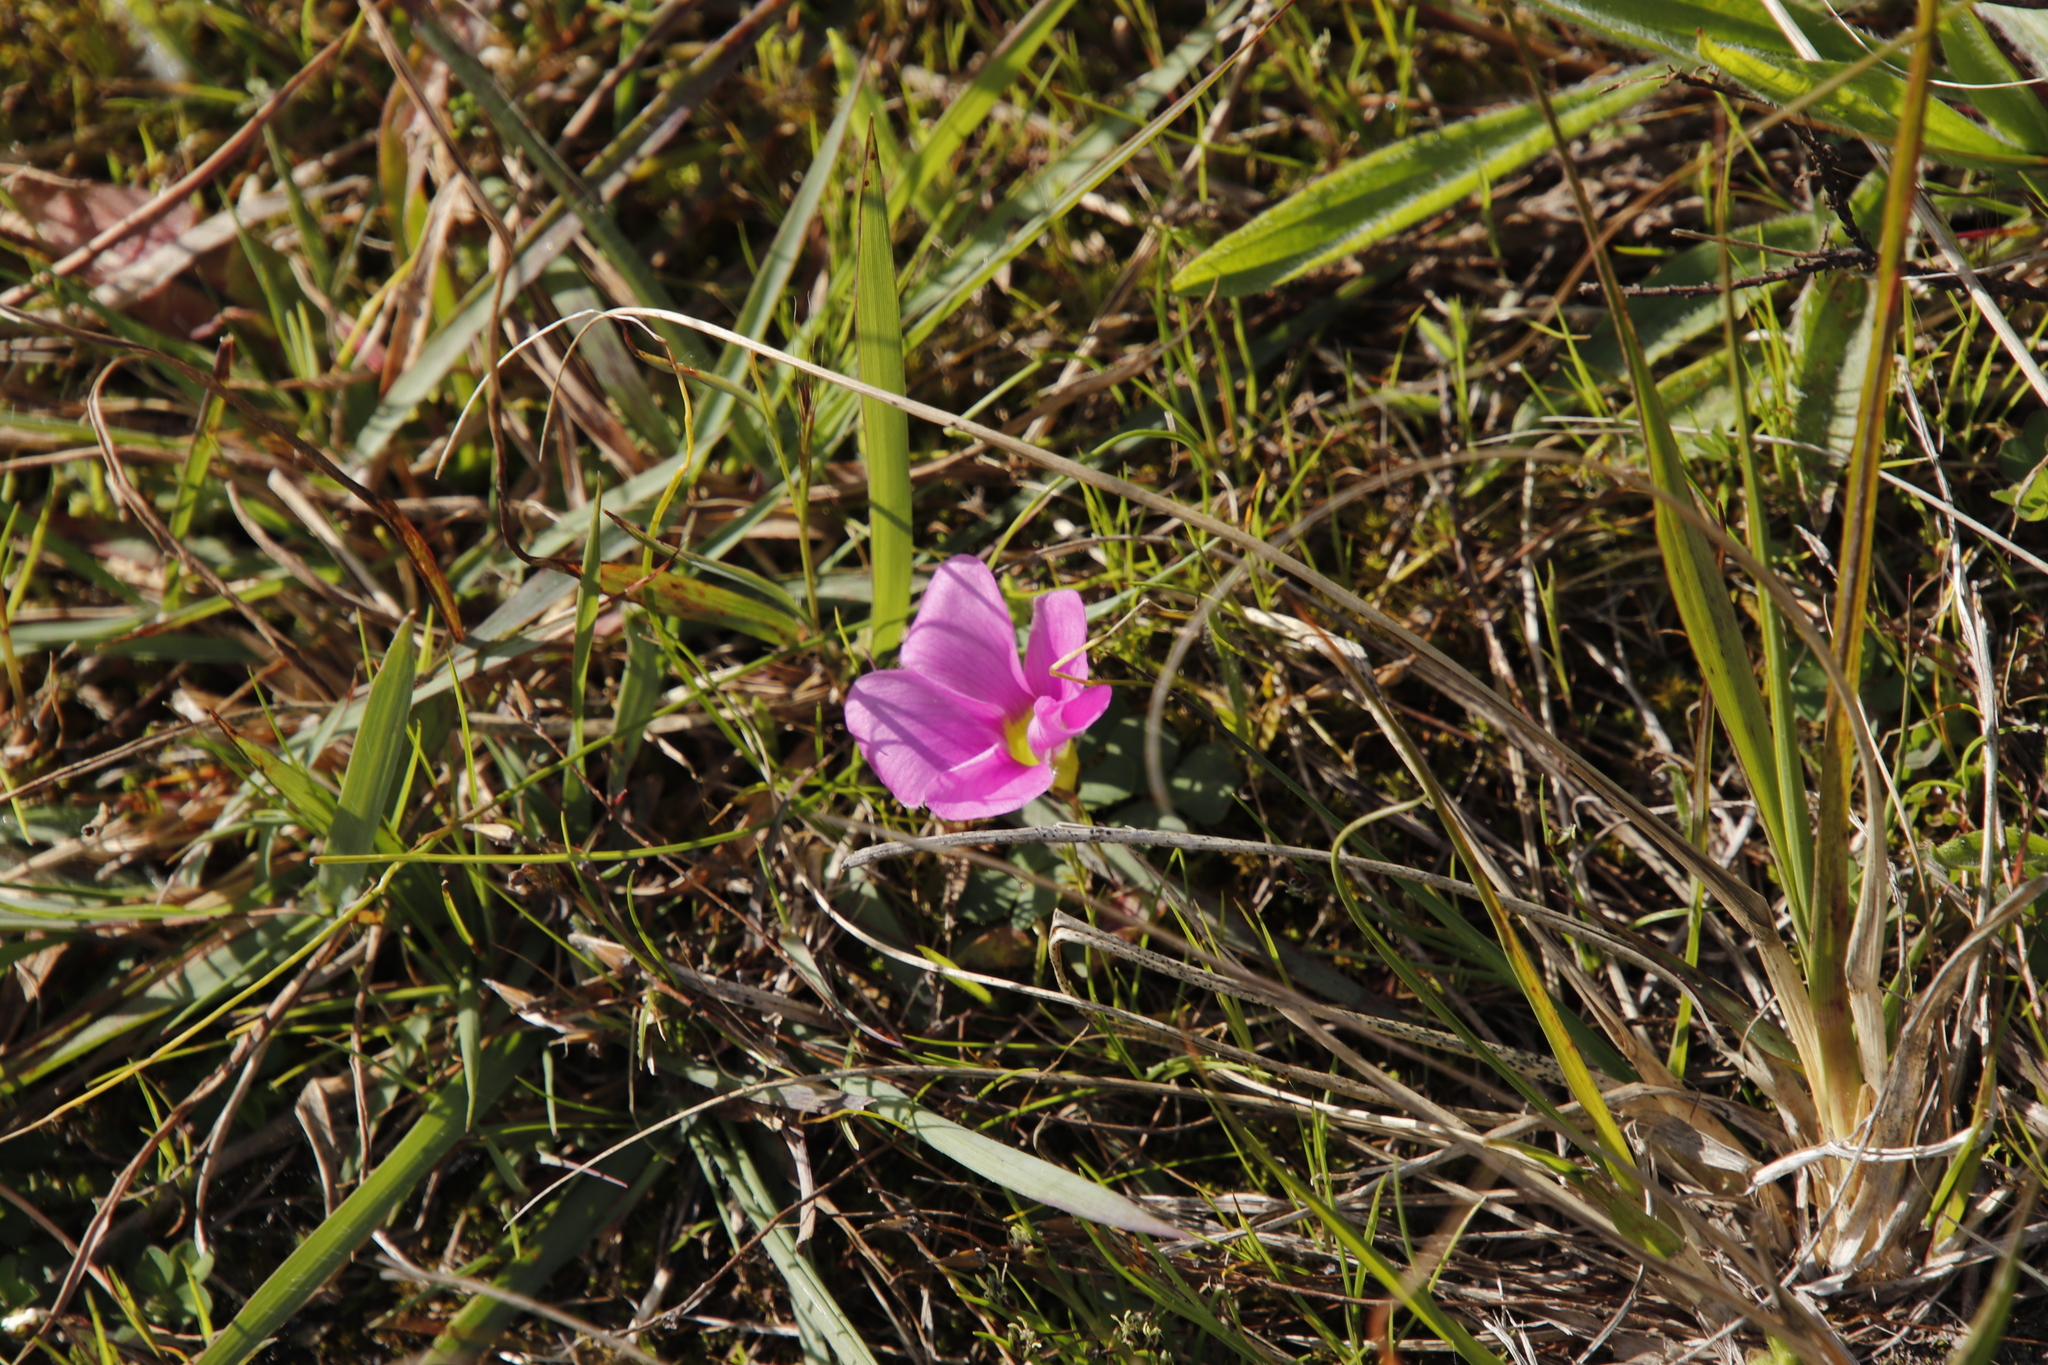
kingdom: Plantae
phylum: Tracheophyta
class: Magnoliopsida
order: Oxalidales
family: Oxalidaceae
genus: Oxalis
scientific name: Oxalis purpurea
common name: Purple woodsorrel
